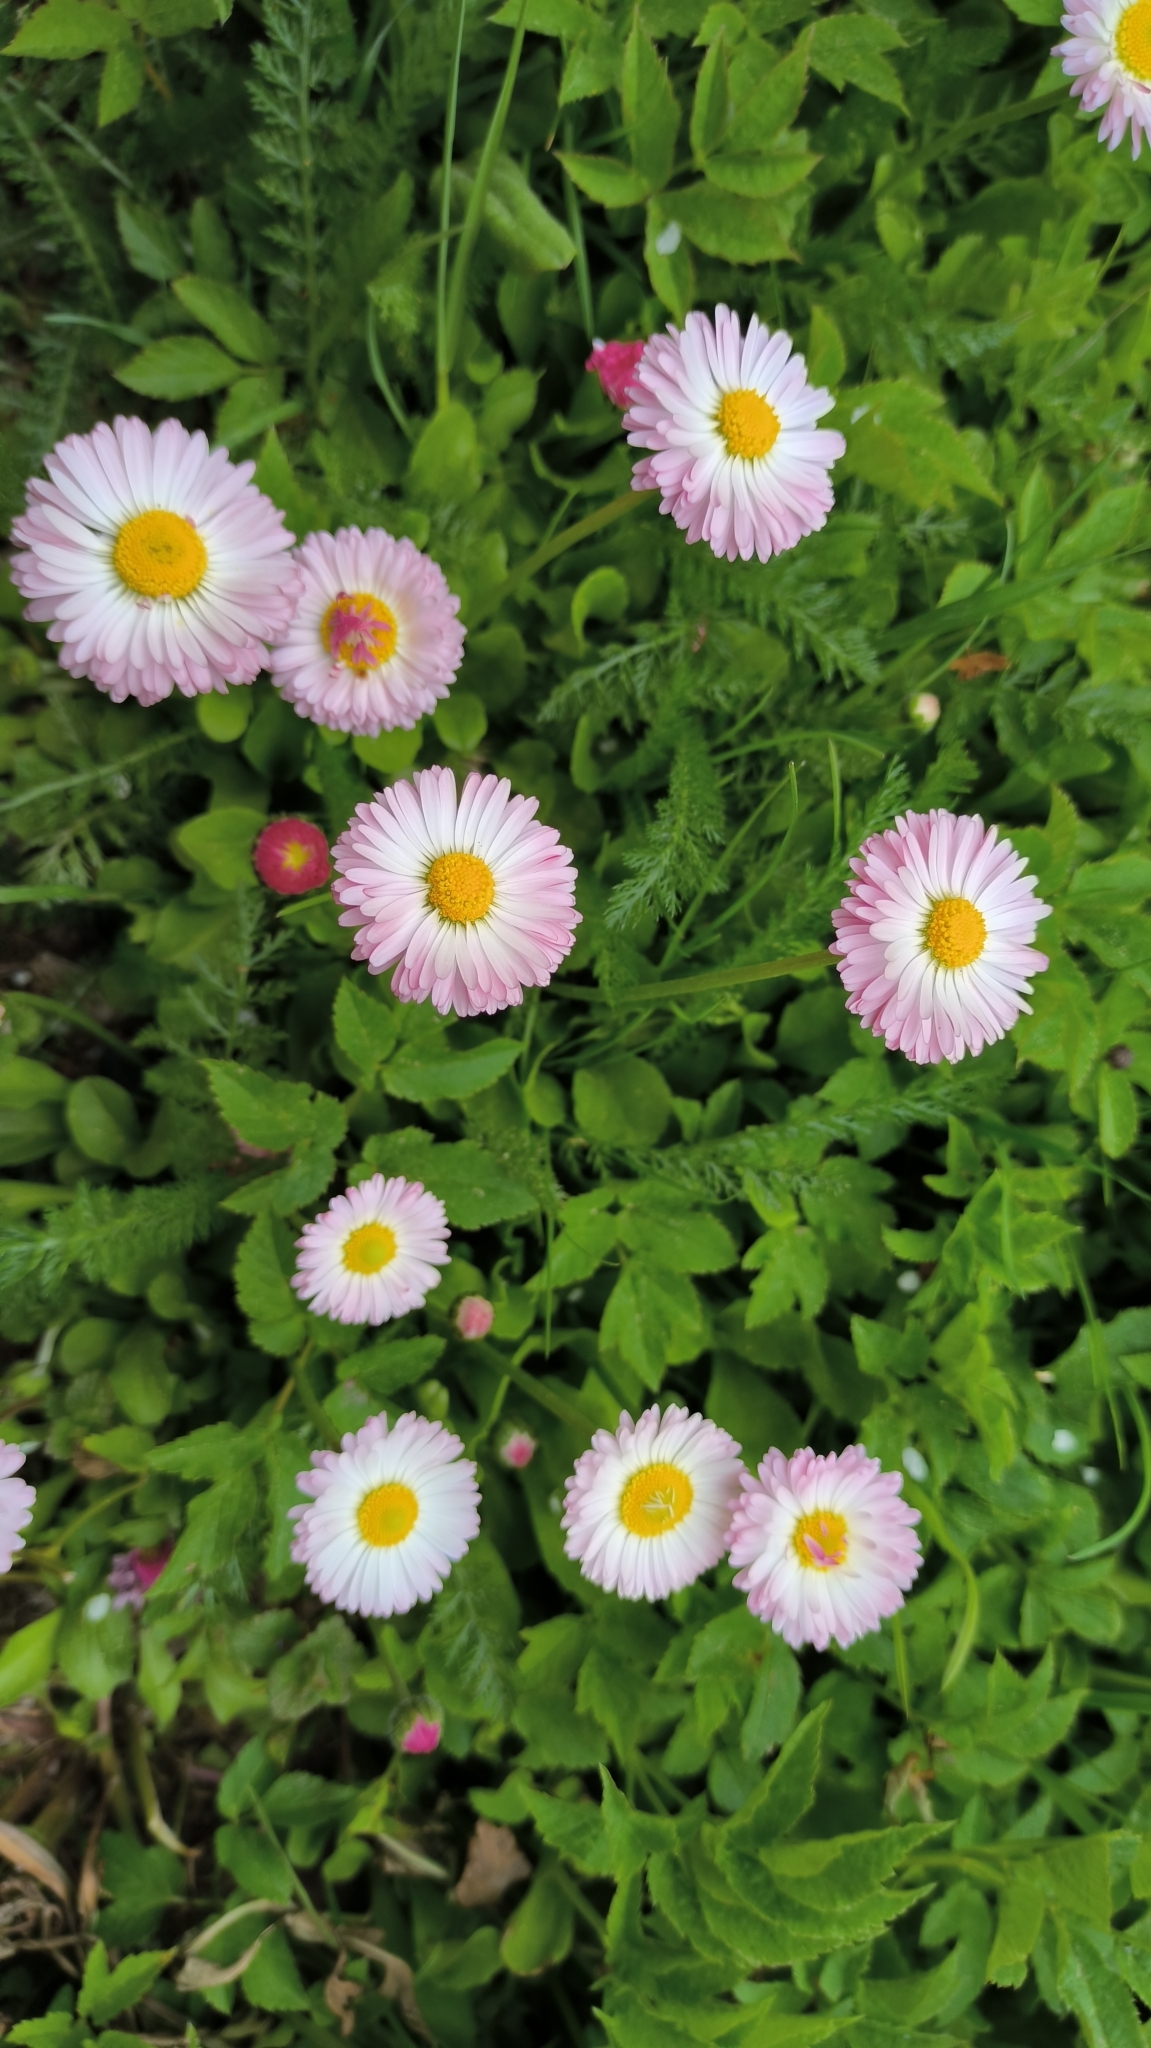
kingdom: Plantae
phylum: Tracheophyta
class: Magnoliopsida
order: Asterales
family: Asteraceae
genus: Bellis
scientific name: Bellis perennis
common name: Lawndaisy
